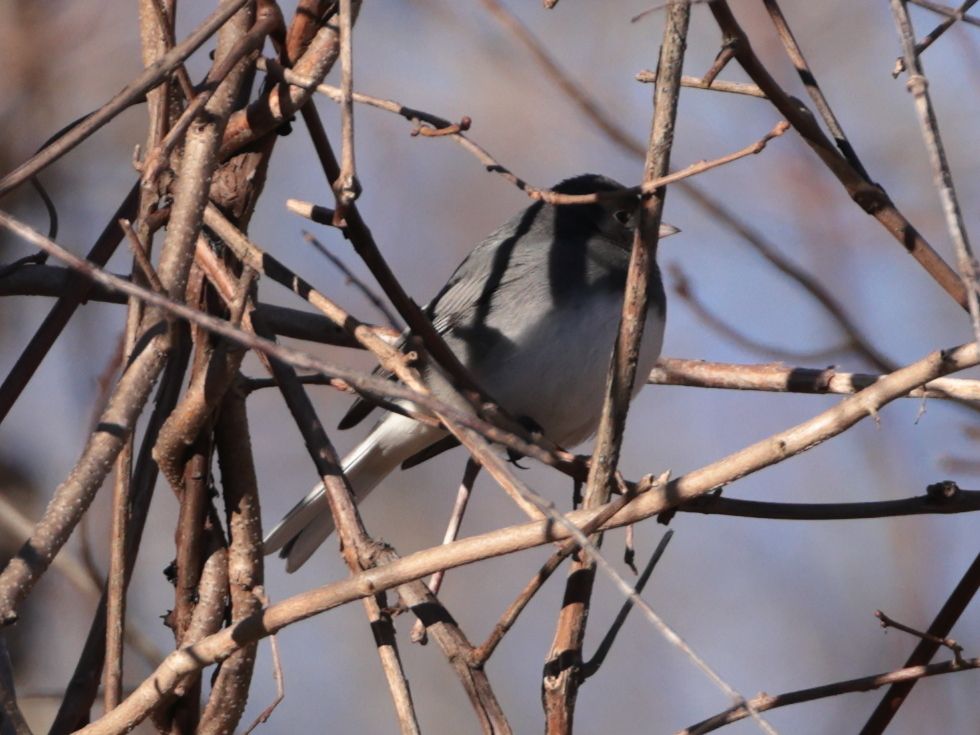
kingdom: Animalia
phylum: Chordata
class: Aves
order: Passeriformes
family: Passerellidae
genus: Junco
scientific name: Junco hyemalis
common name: Dark-eyed junco
